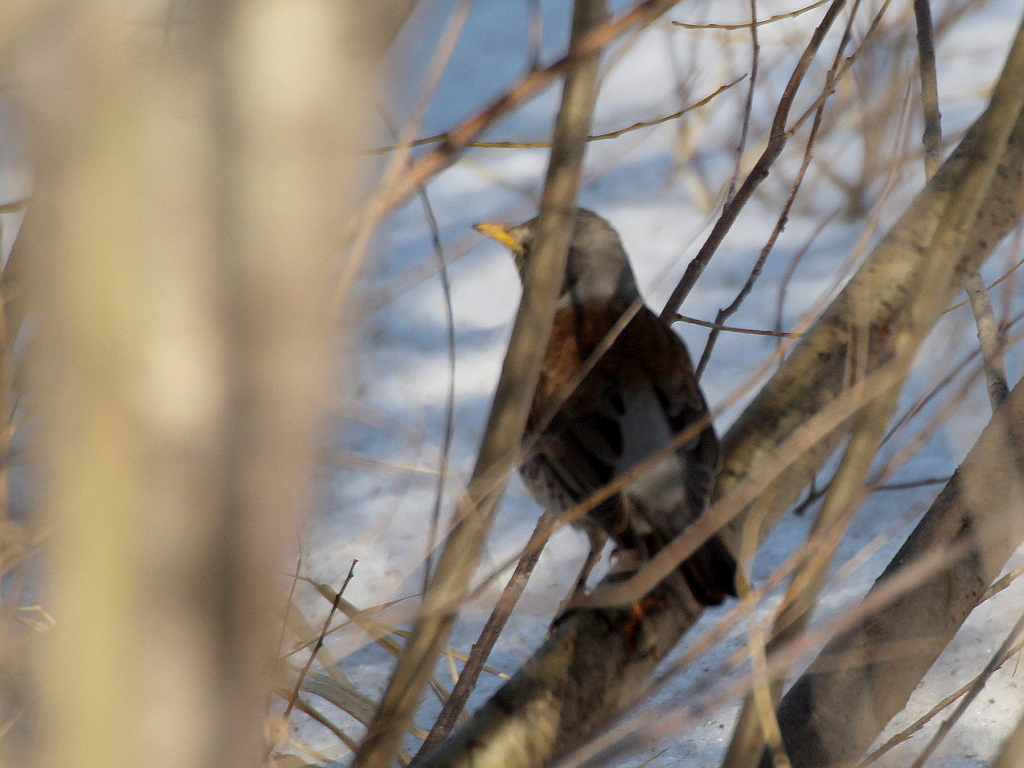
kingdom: Animalia
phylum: Chordata
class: Aves
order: Passeriformes
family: Turdidae
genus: Turdus
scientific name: Turdus pilaris
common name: Fieldfare
